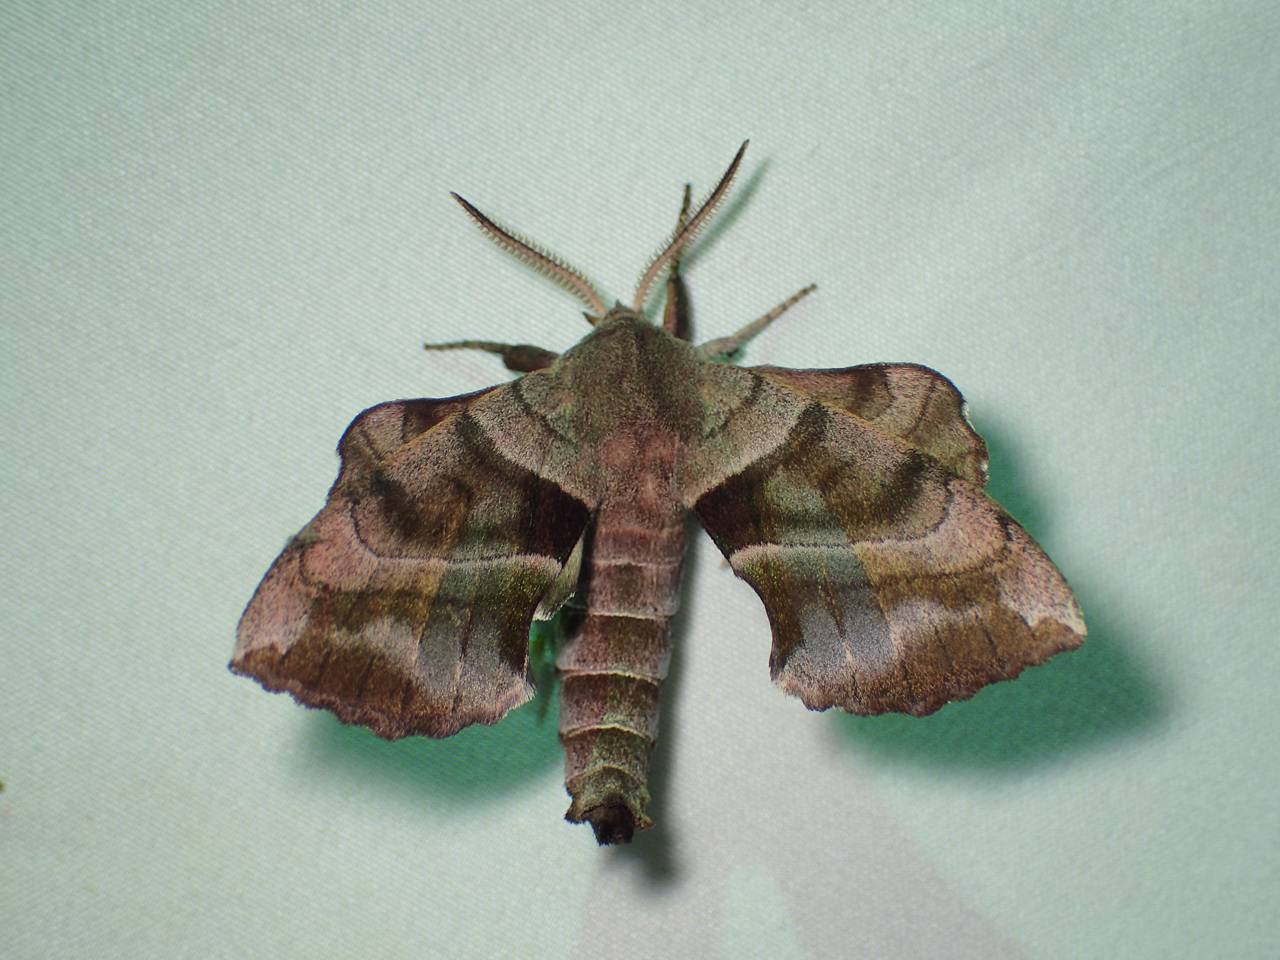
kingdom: Animalia
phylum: Arthropoda
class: Insecta
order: Lepidoptera
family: Sphingidae
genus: Amorpha
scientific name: Amorpha juglandis
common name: Walnut sphinx
